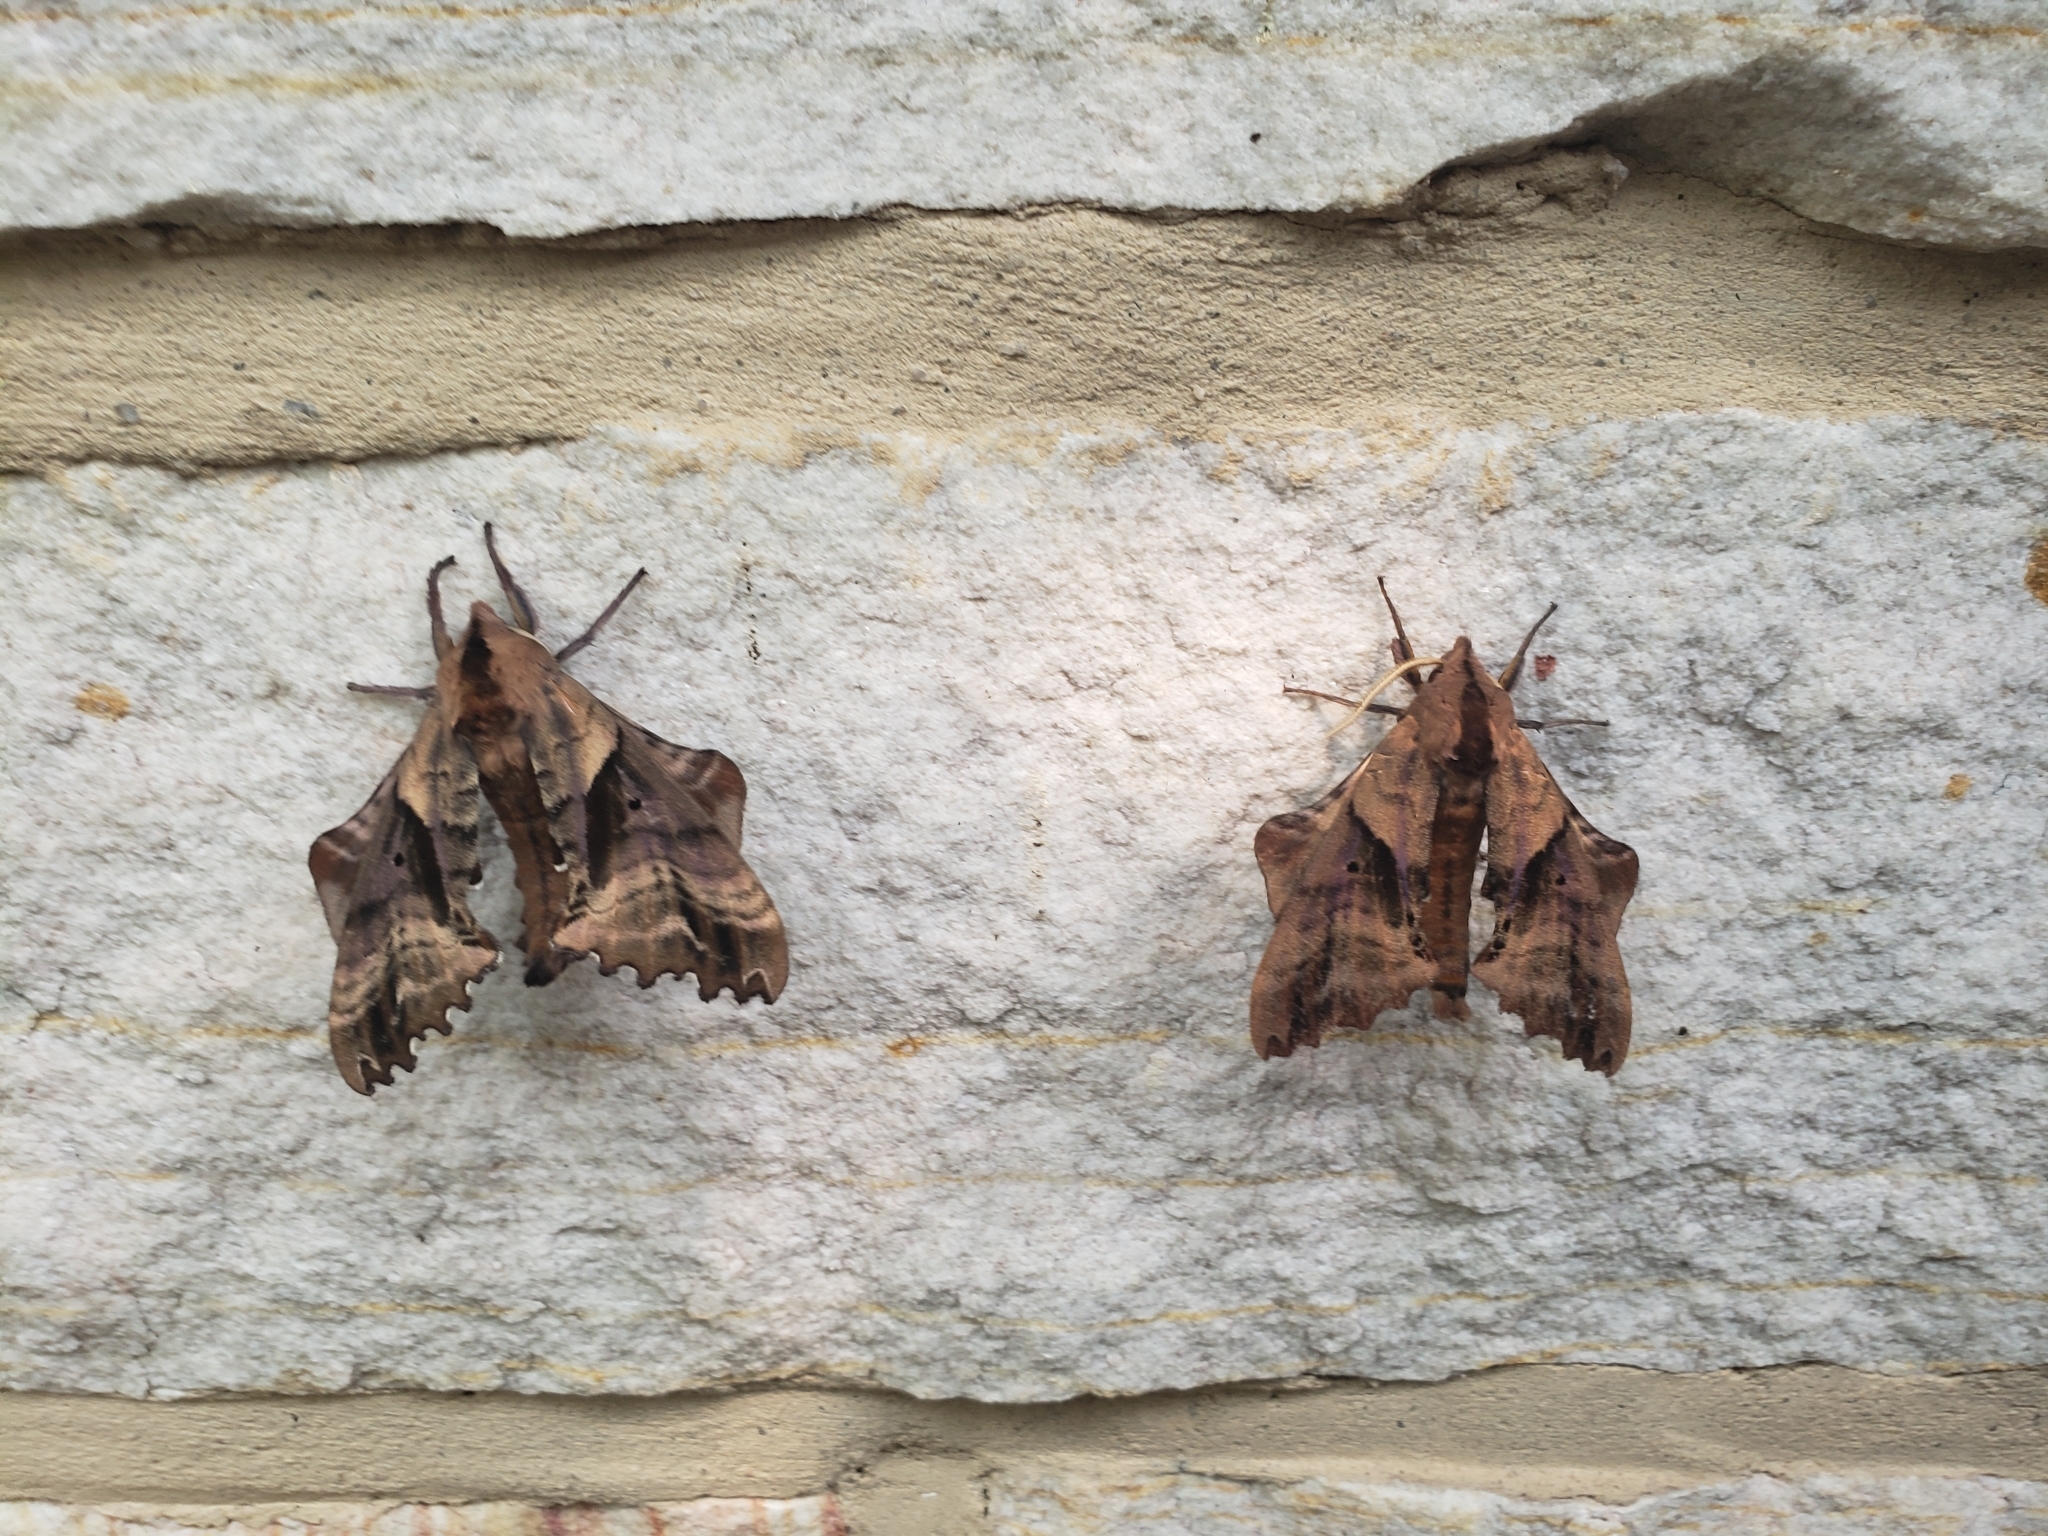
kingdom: Animalia
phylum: Arthropoda
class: Insecta
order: Lepidoptera
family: Sphingidae
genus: Paonias
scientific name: Paonias excaecata
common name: Blind-eyed sphinx
